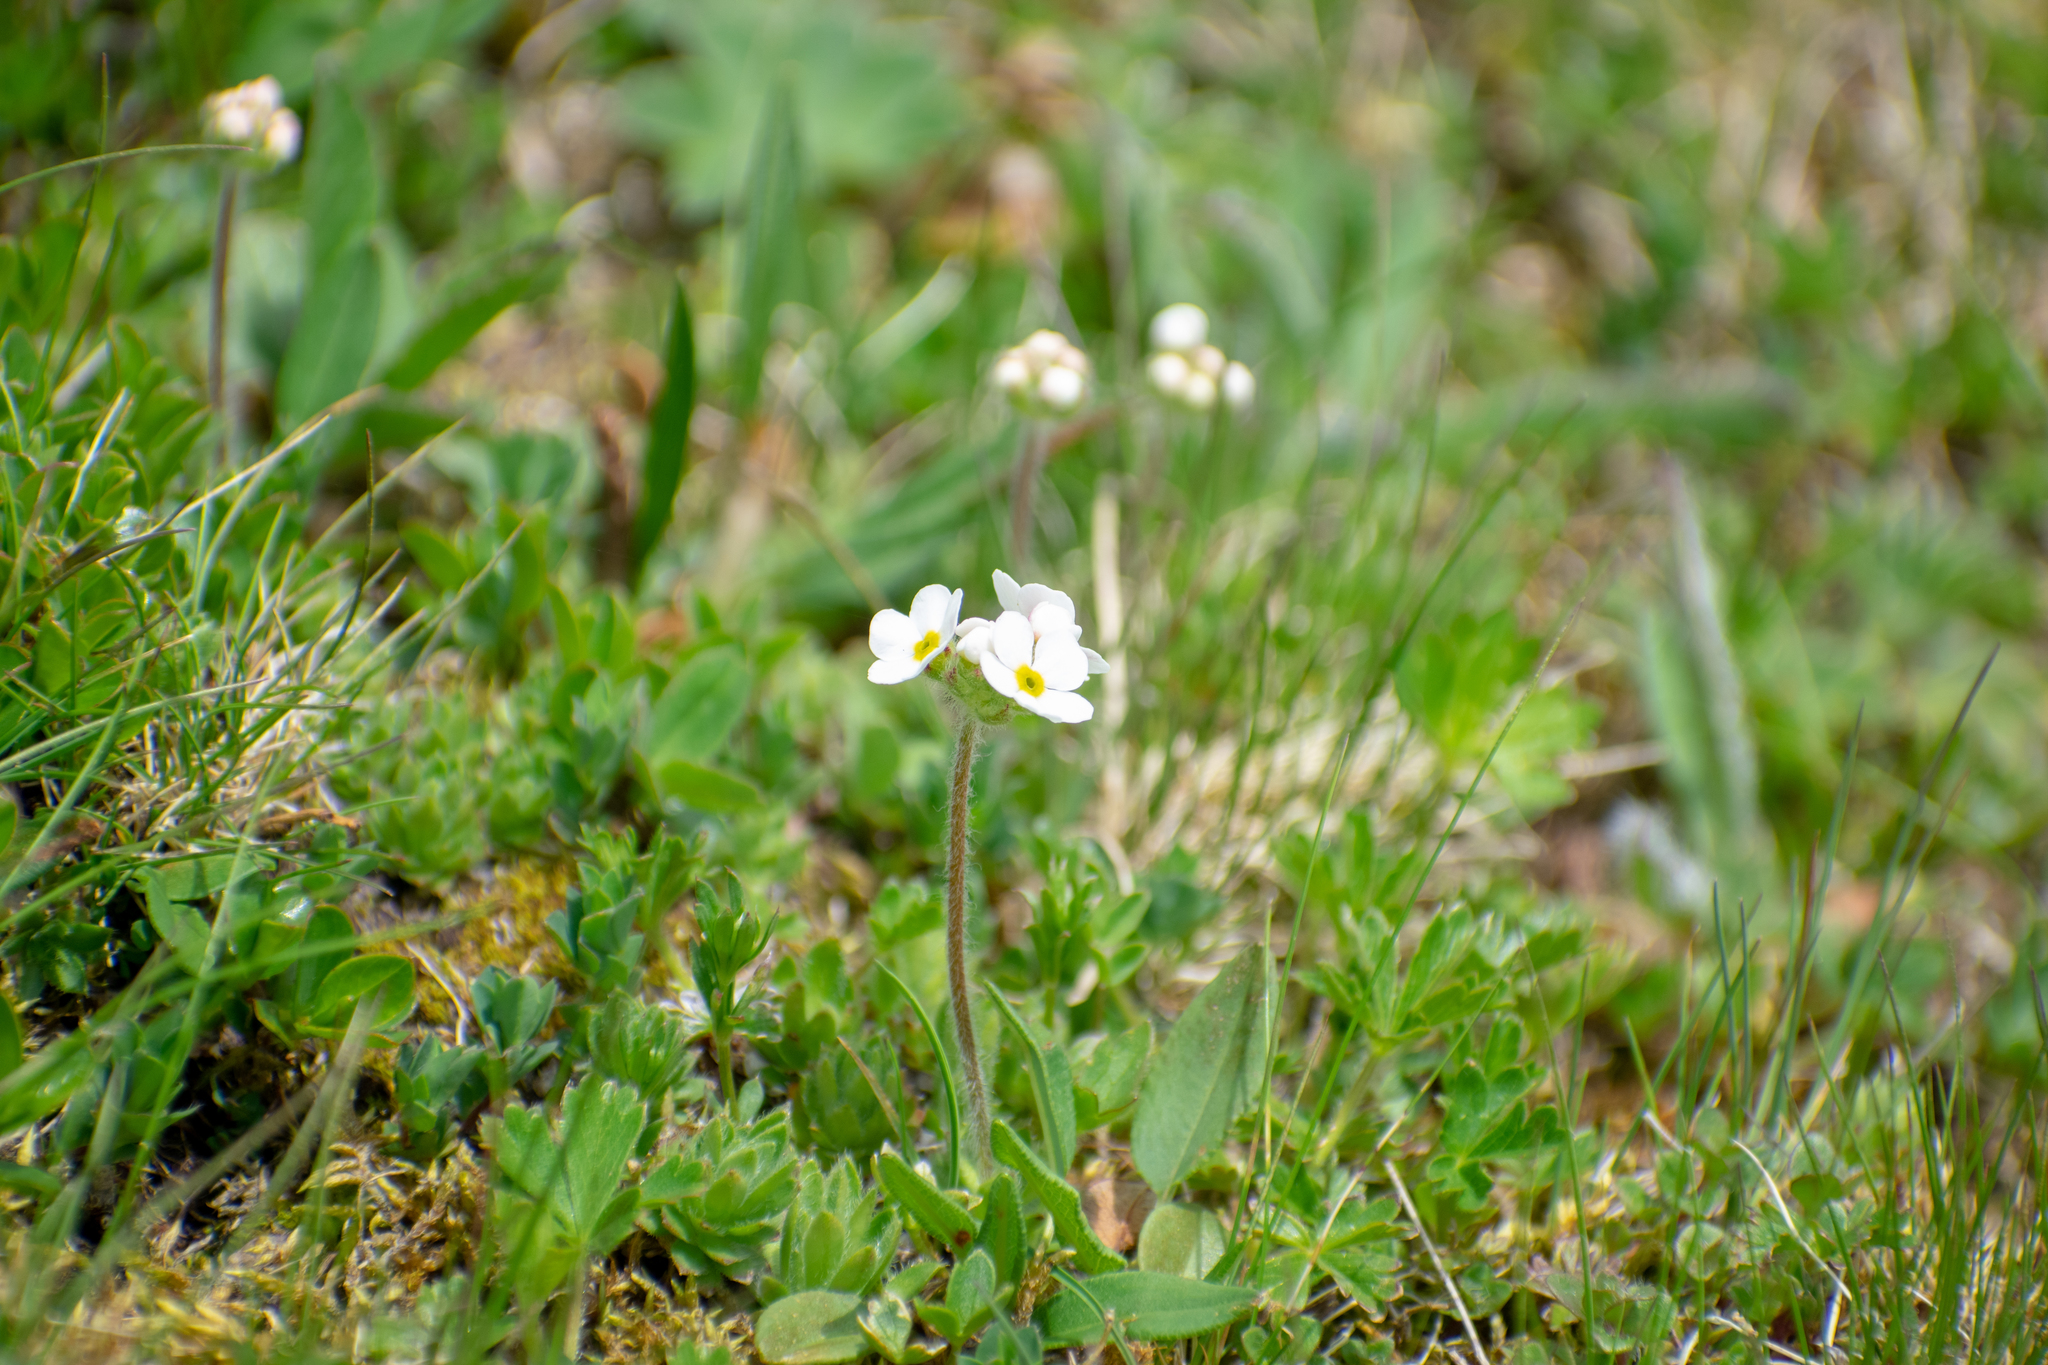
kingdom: Plantae
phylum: Tracheophyta
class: Magnoliopsida
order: Ericales
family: Primulaceae
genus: Androsace
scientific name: Androsace chamaejasme
